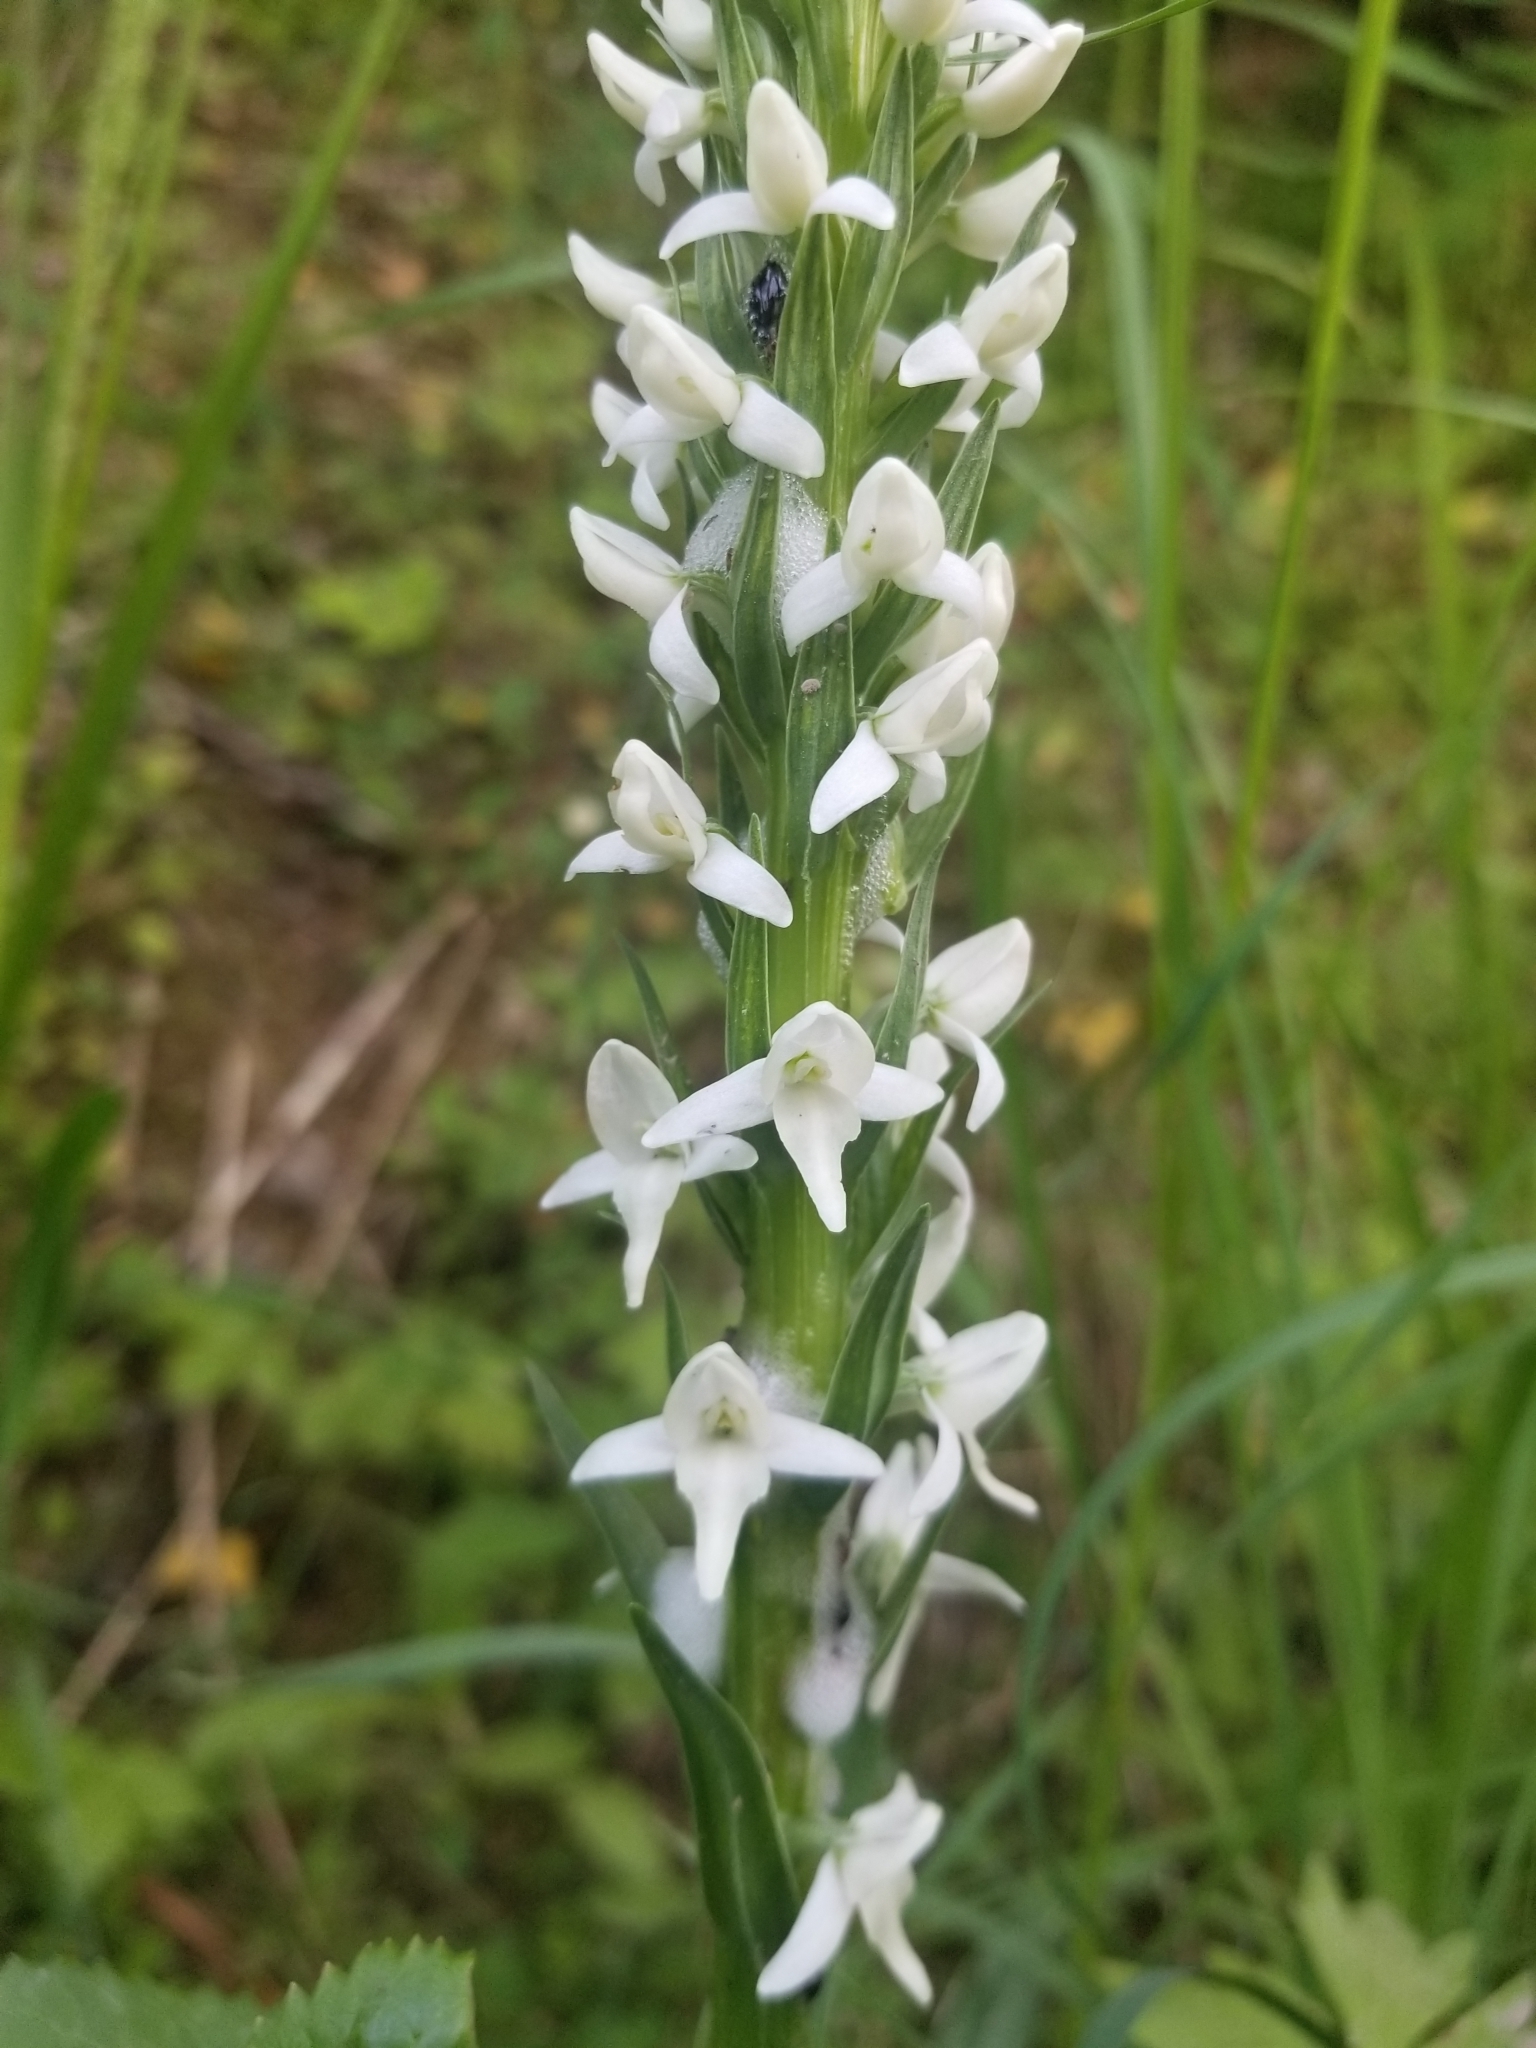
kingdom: Plantae
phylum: Tracheophyta
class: Liliopsida
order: Asparagales
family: Orchidaceae
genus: Platanthera
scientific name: Platanthera dilatata
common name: Bog candles
